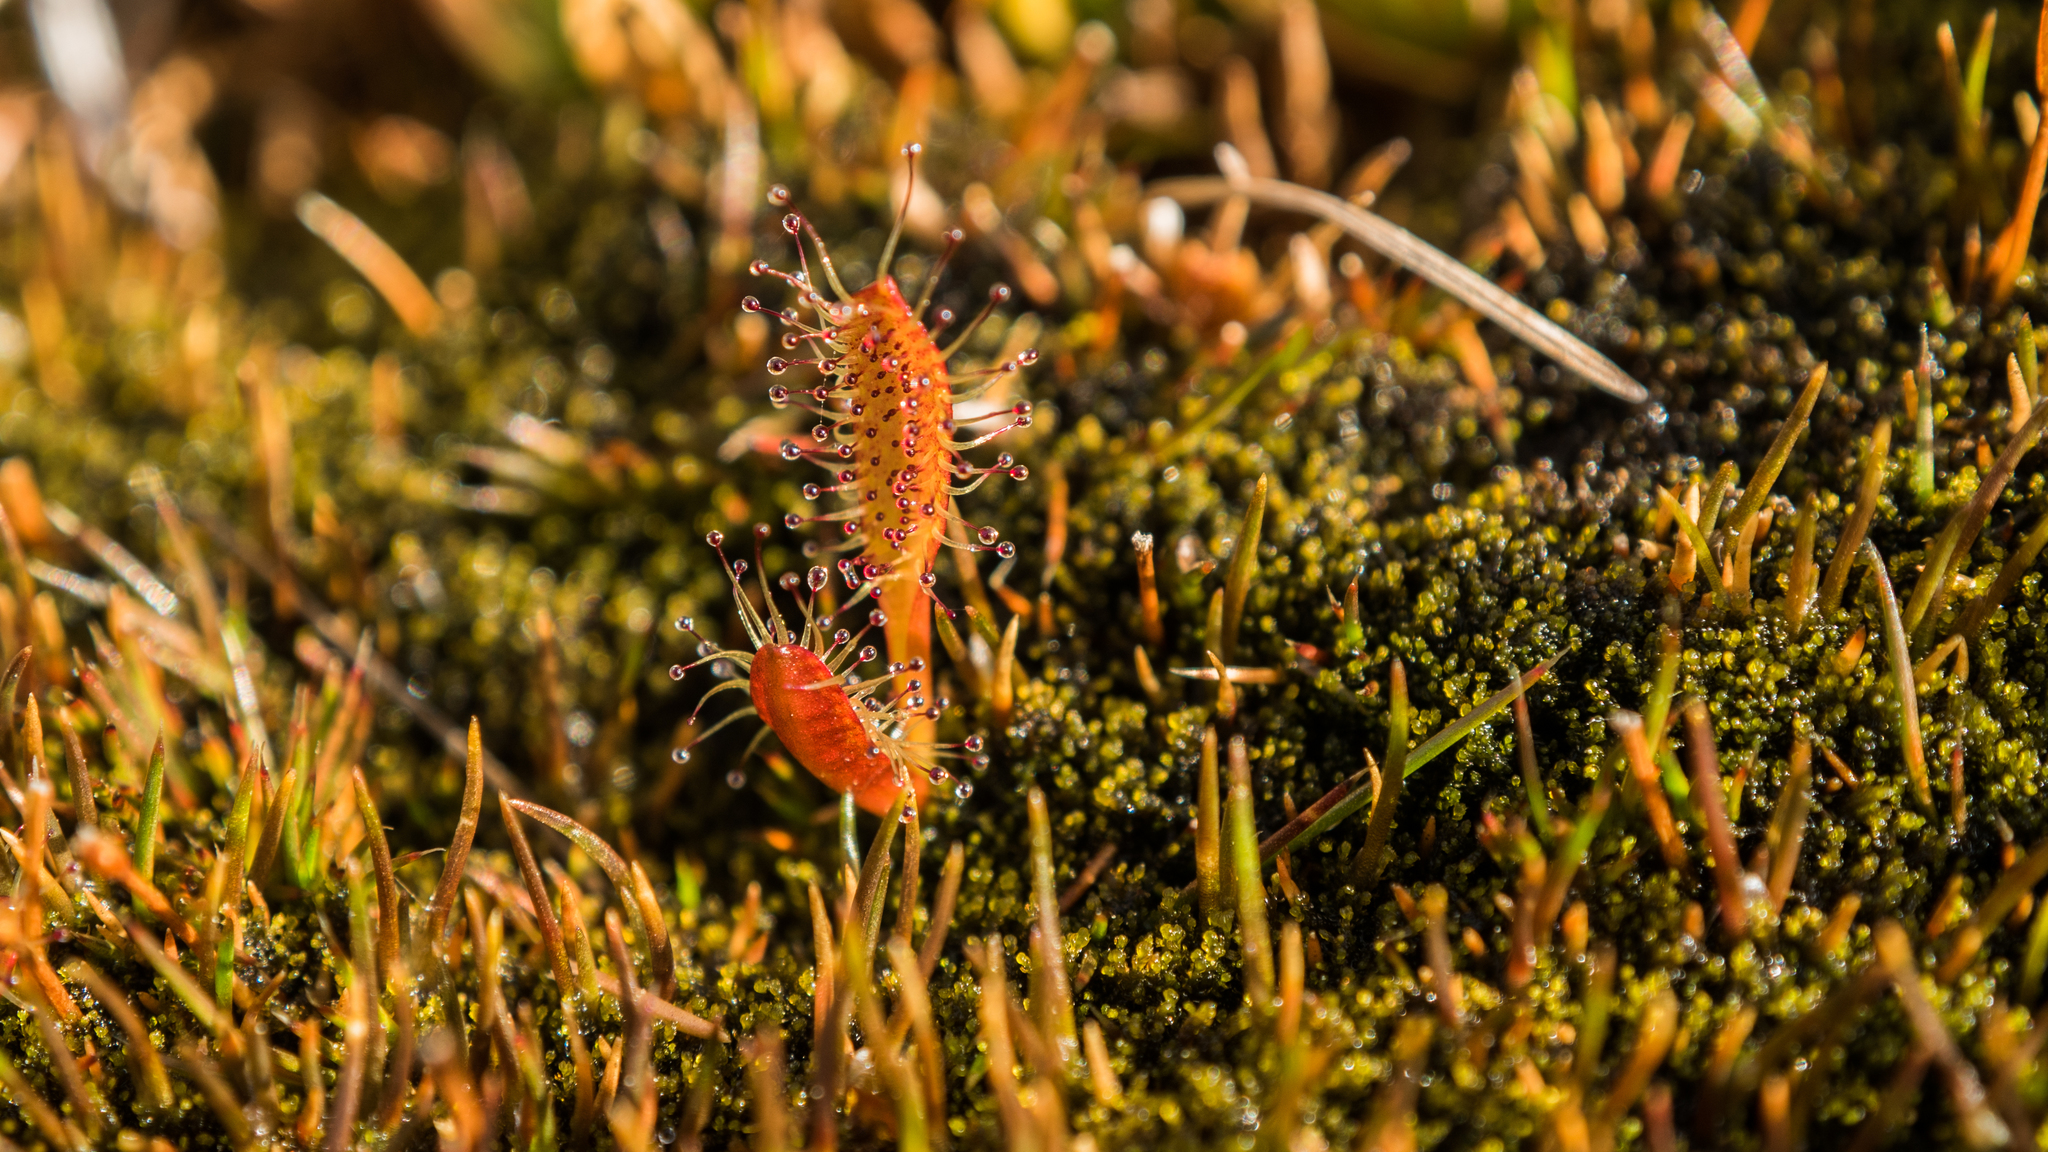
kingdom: Plantae
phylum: Tracheophyta
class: Magnoliopsida
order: Caryophyllales
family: Droseraceae
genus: Drosera
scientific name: Drosera arcturi
